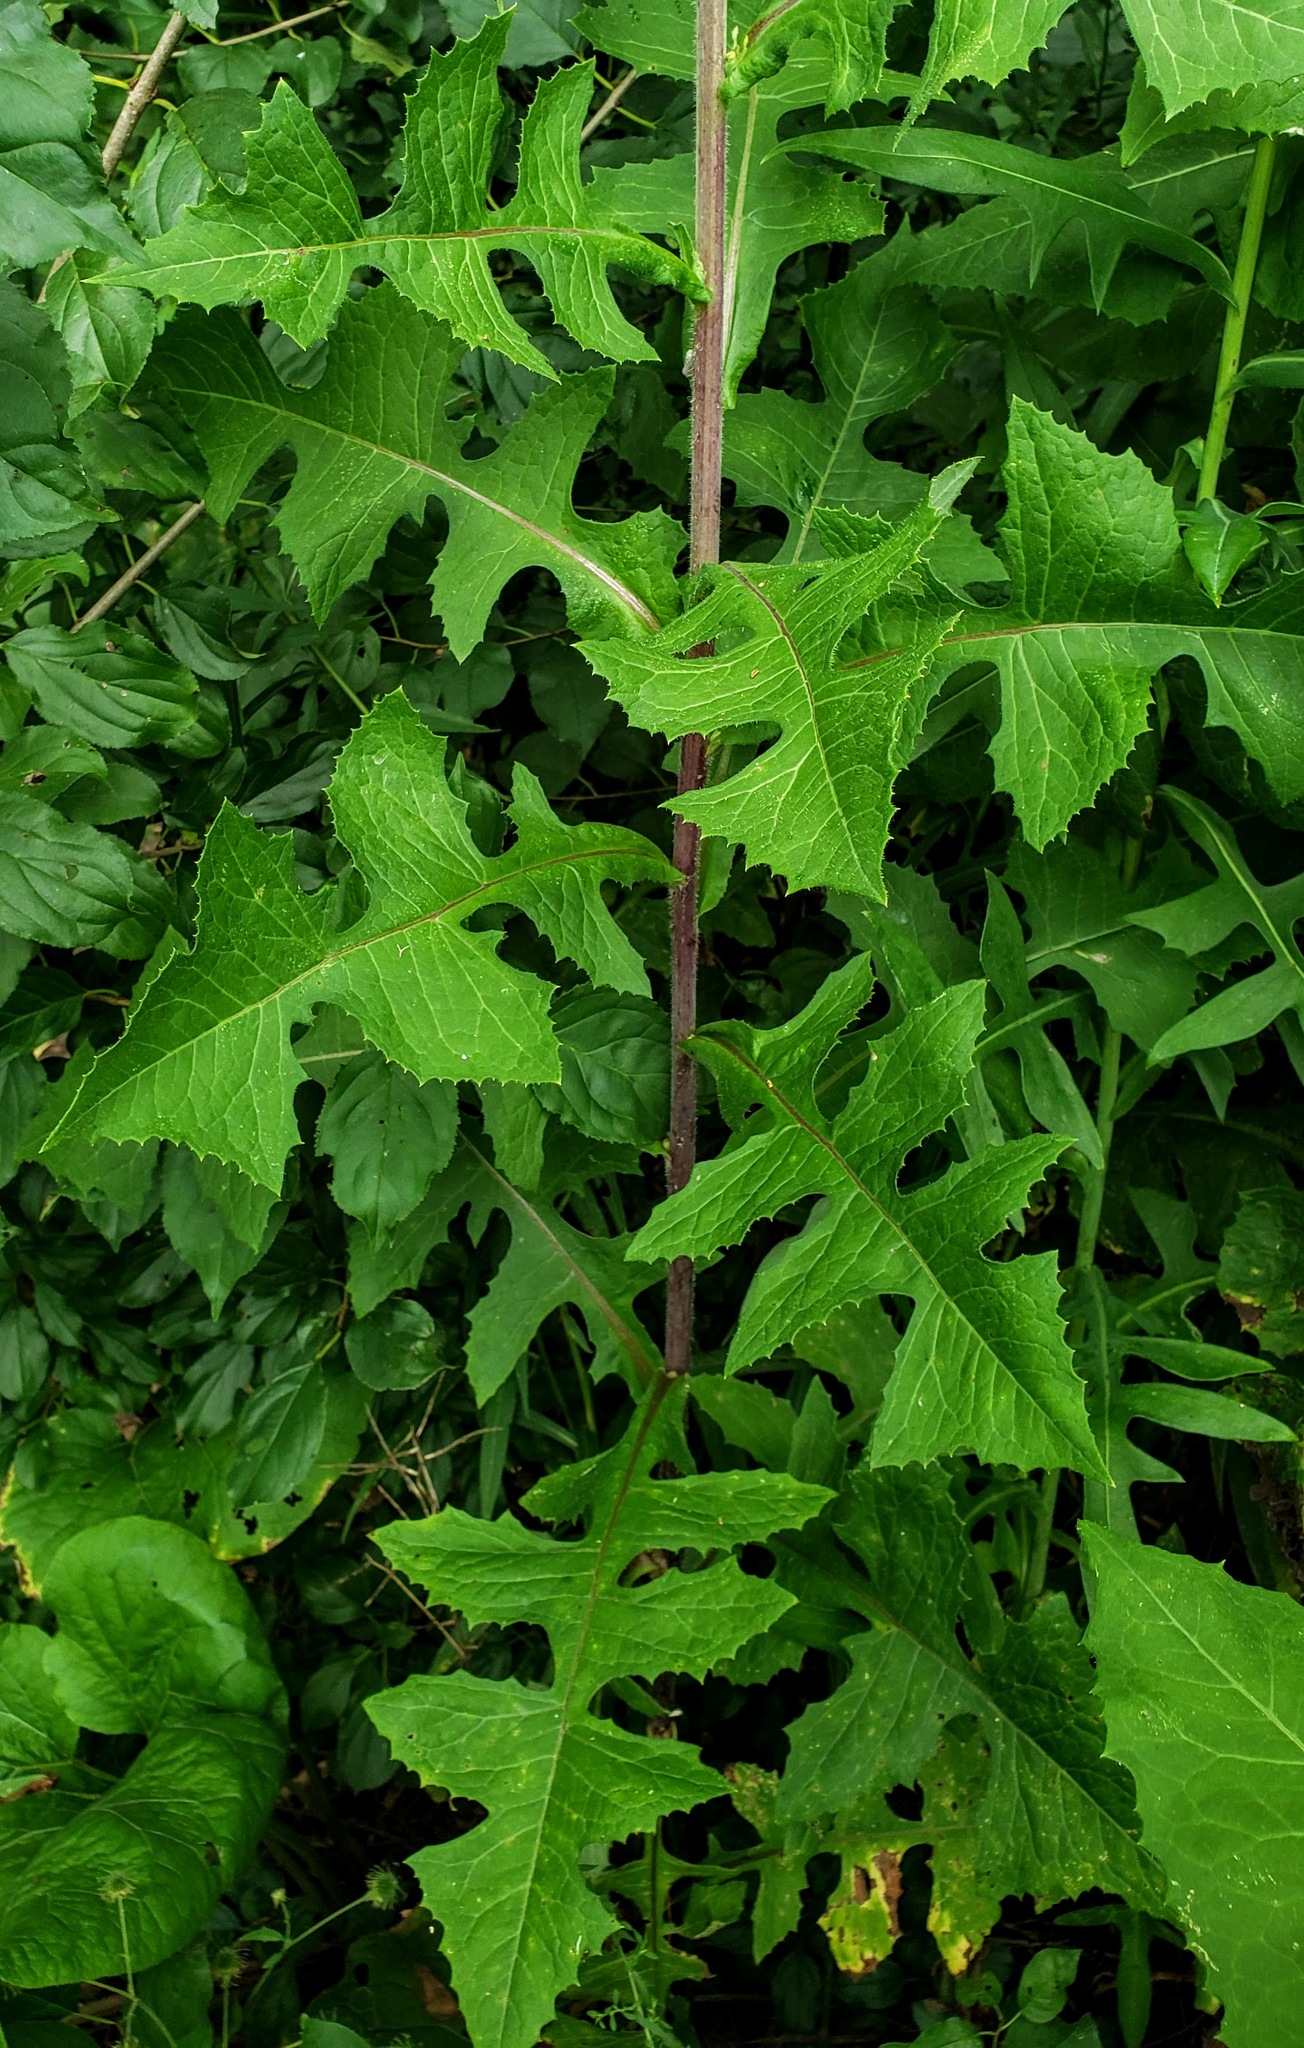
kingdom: Plantae
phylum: Tracheophyta
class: Magnoliopsida
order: Asterales
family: Asteraceae
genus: Lactuca
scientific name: Lactuca biennis
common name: Blue wood lettuce
